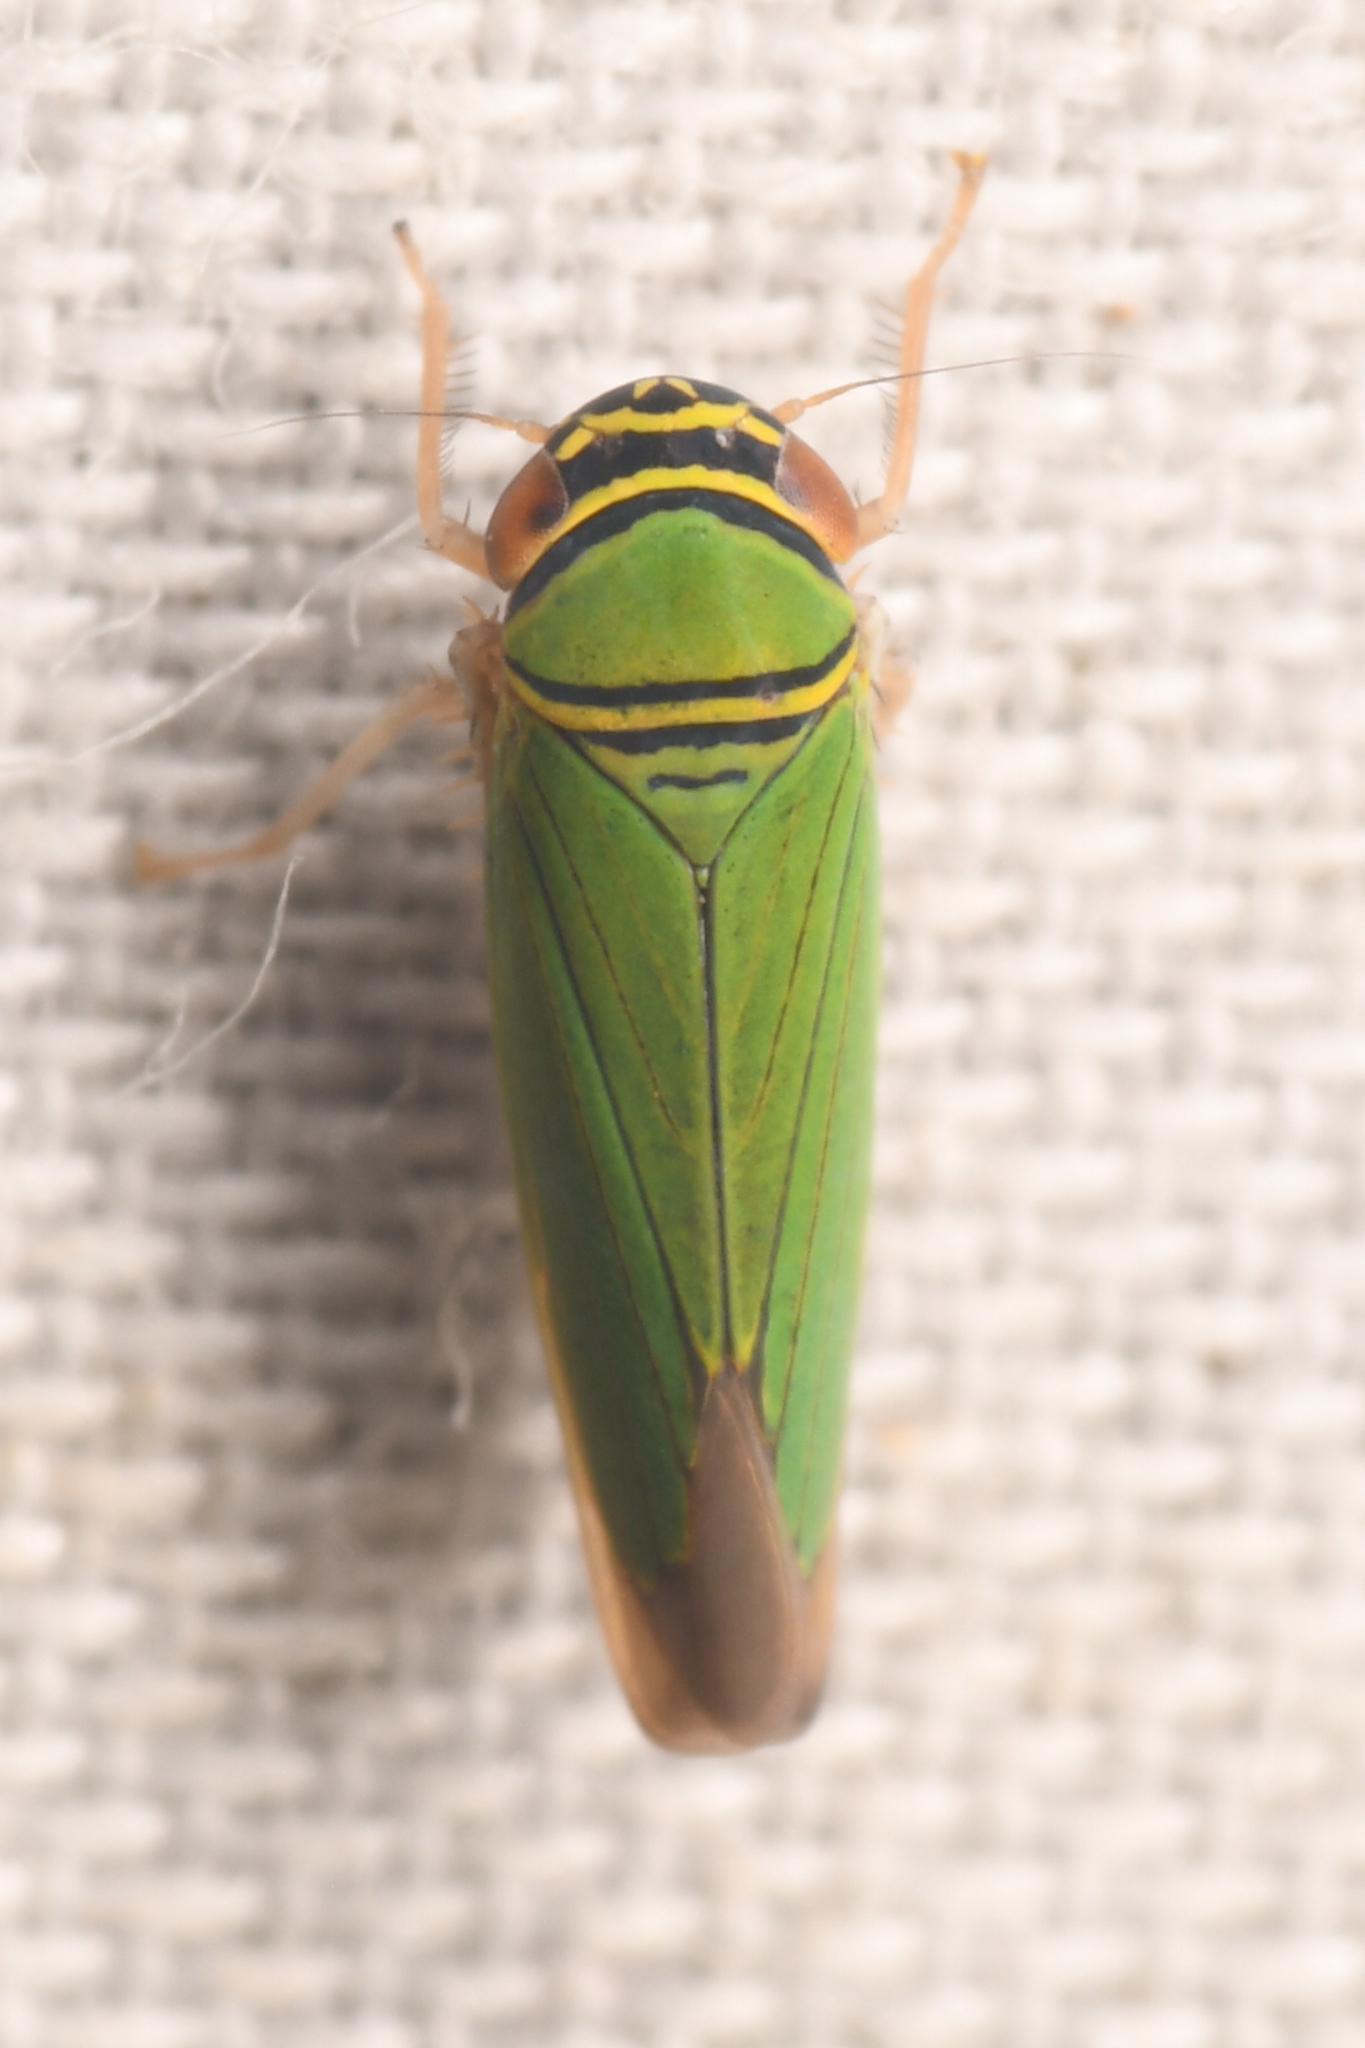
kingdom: Animalia
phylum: Arthropoda
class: Insecta
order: Hemiptera
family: Cicadellidae
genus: Tylozygus
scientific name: Tylozygus geometricus
